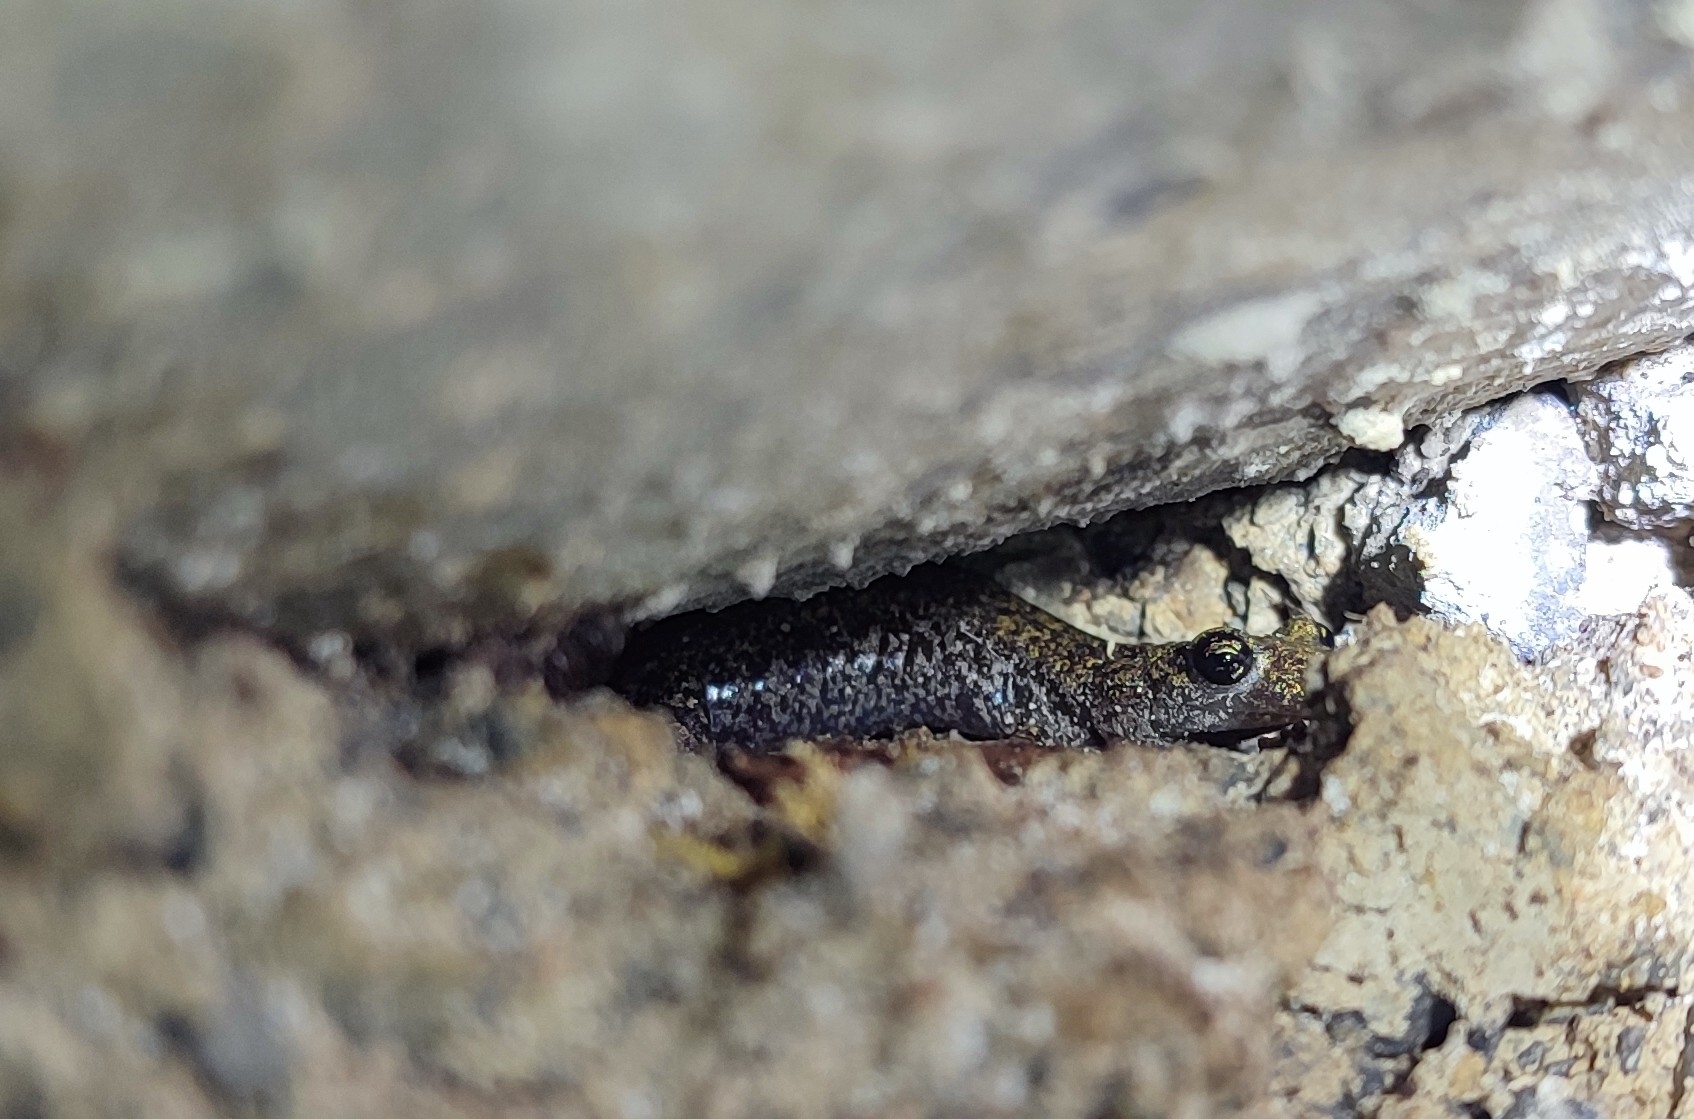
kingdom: Animalia
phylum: Chordata
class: Amphibia
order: Caudata
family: Plethodontidae
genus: Speleomantes
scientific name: Speleomantes strinatii
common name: French cave salamander
